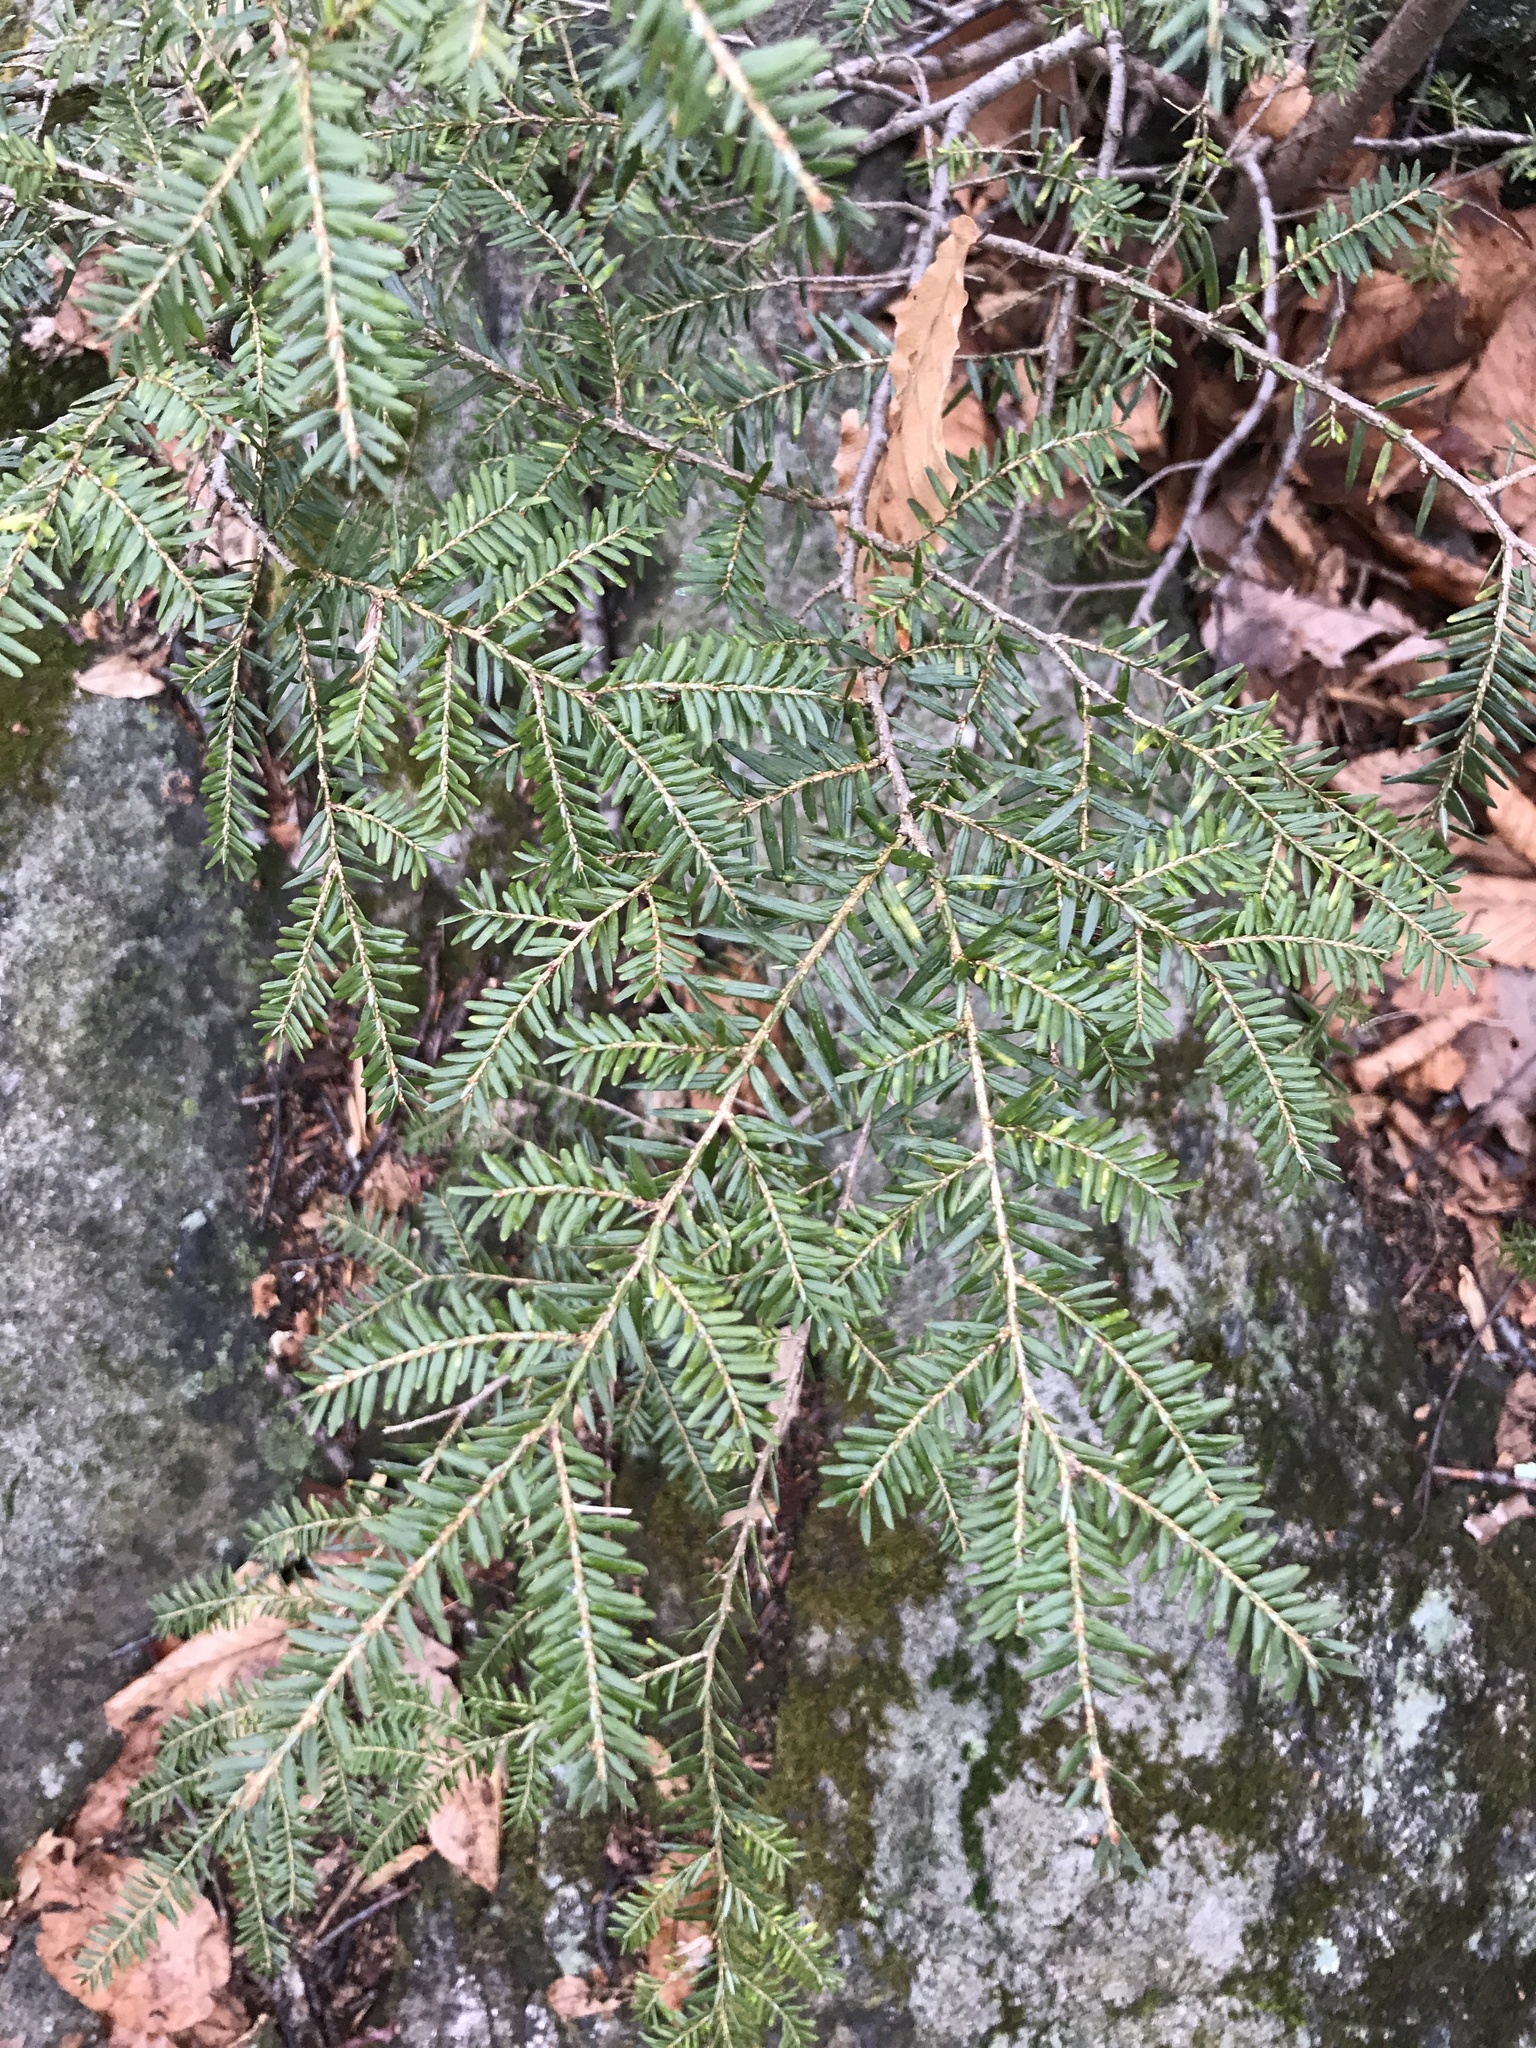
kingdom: Plantae
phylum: Tracheophyta
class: Pinopsida
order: Pinales
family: Pinaceae
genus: Tsuga
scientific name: Tsuga canadensis
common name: Eastern hemlock
